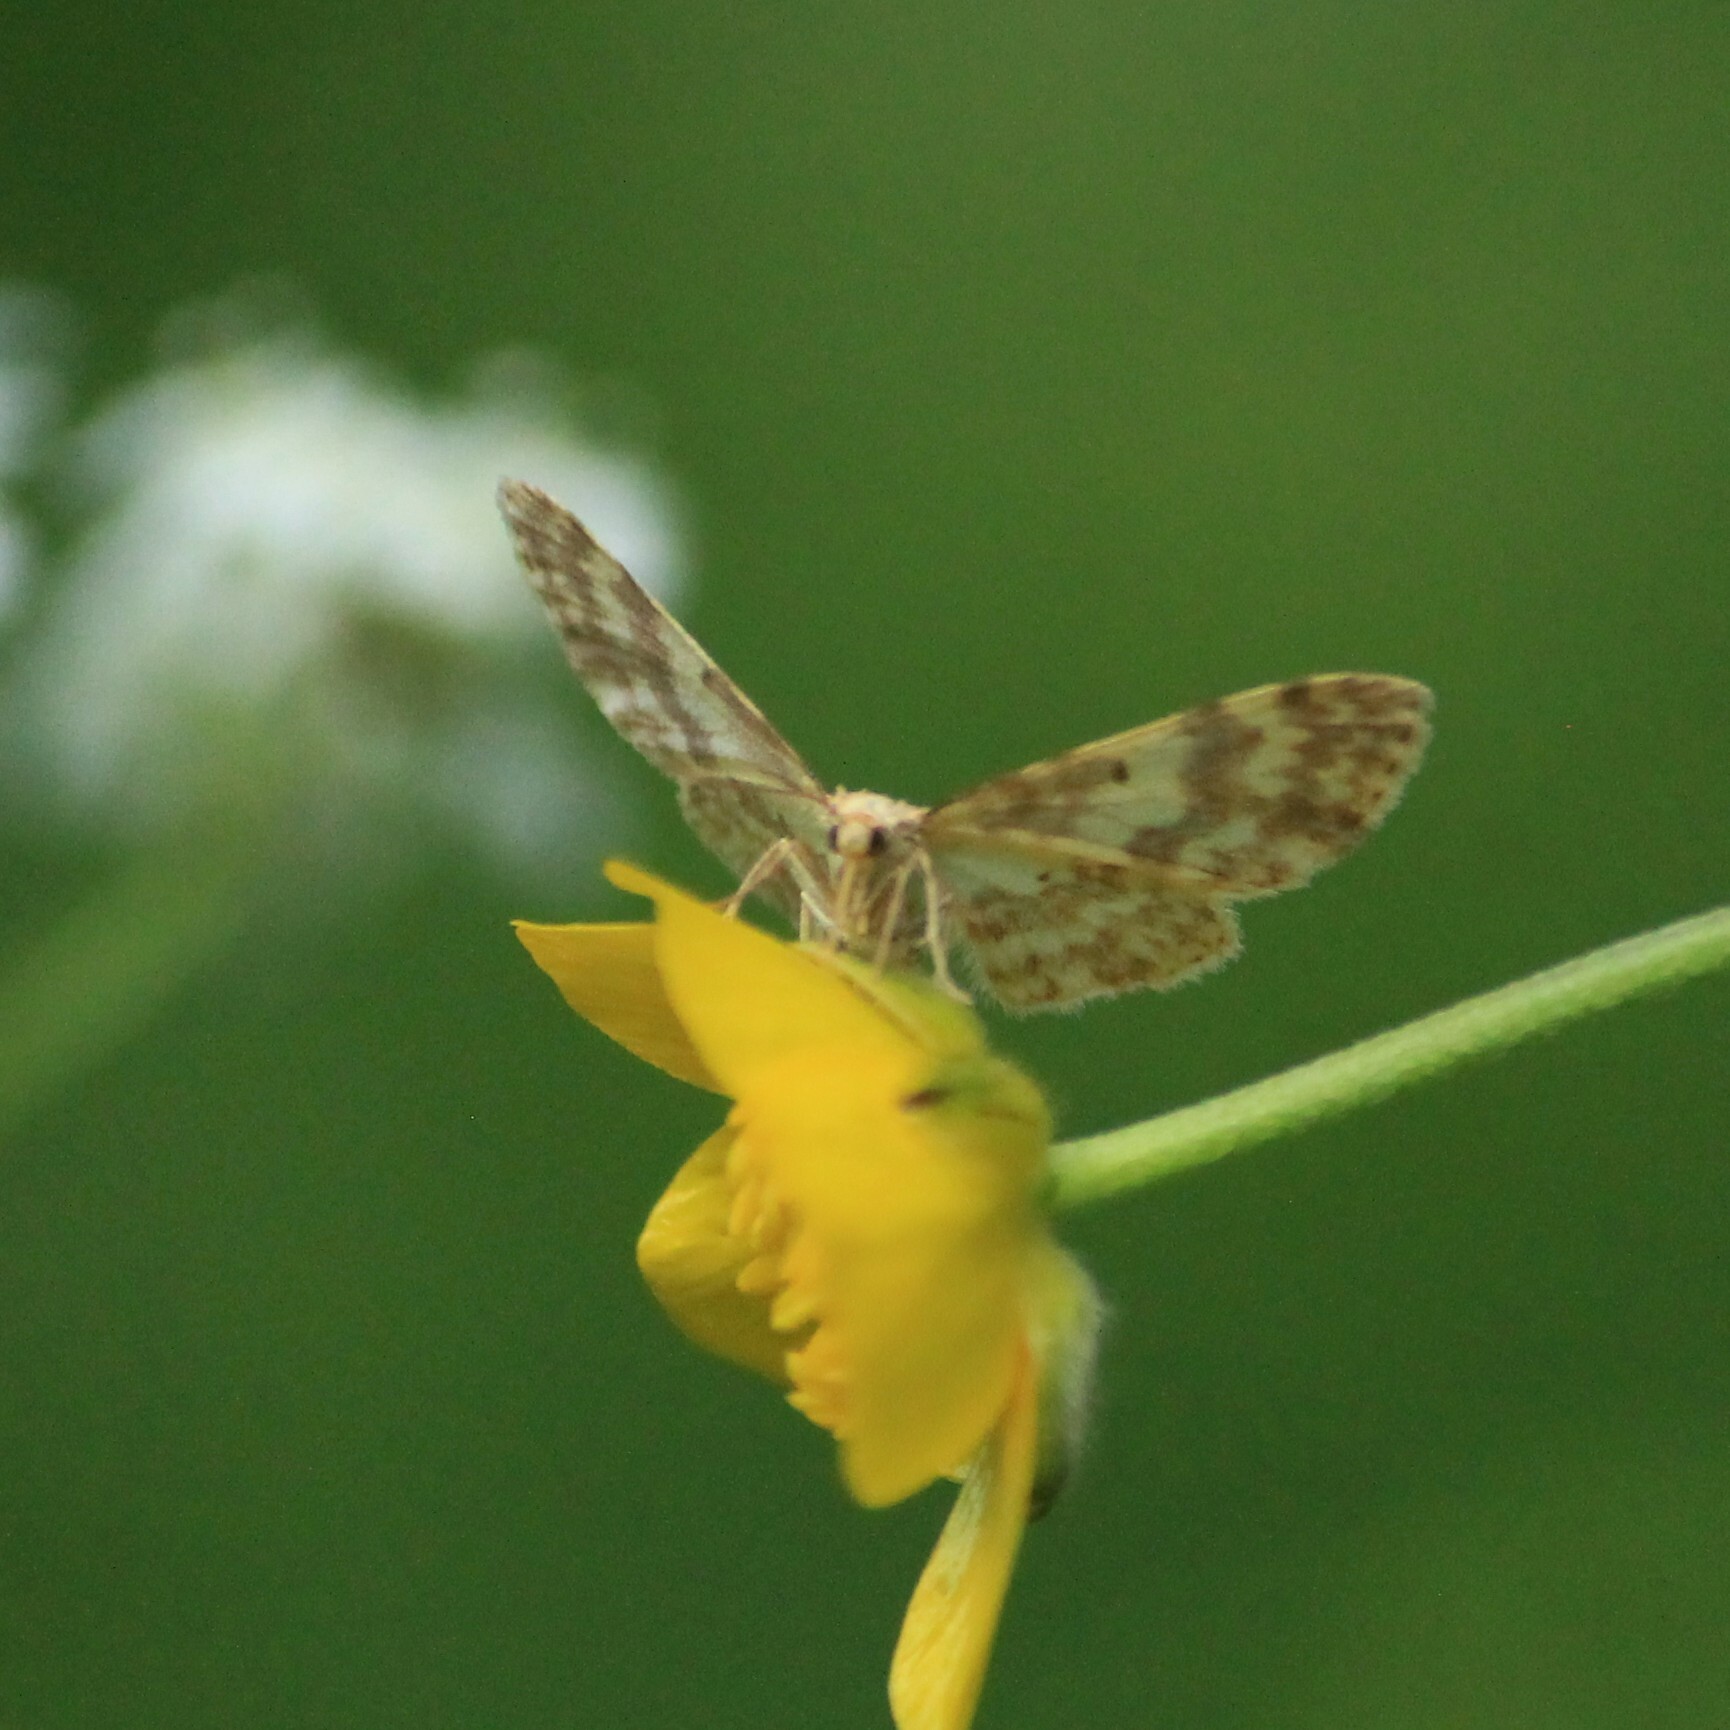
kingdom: Animalia
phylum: Arthropoda
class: Insecta
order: Lepidoptera
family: Geometridae
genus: Hydrelia
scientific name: Hydrelia flammeolaria
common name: Small yellow wave
